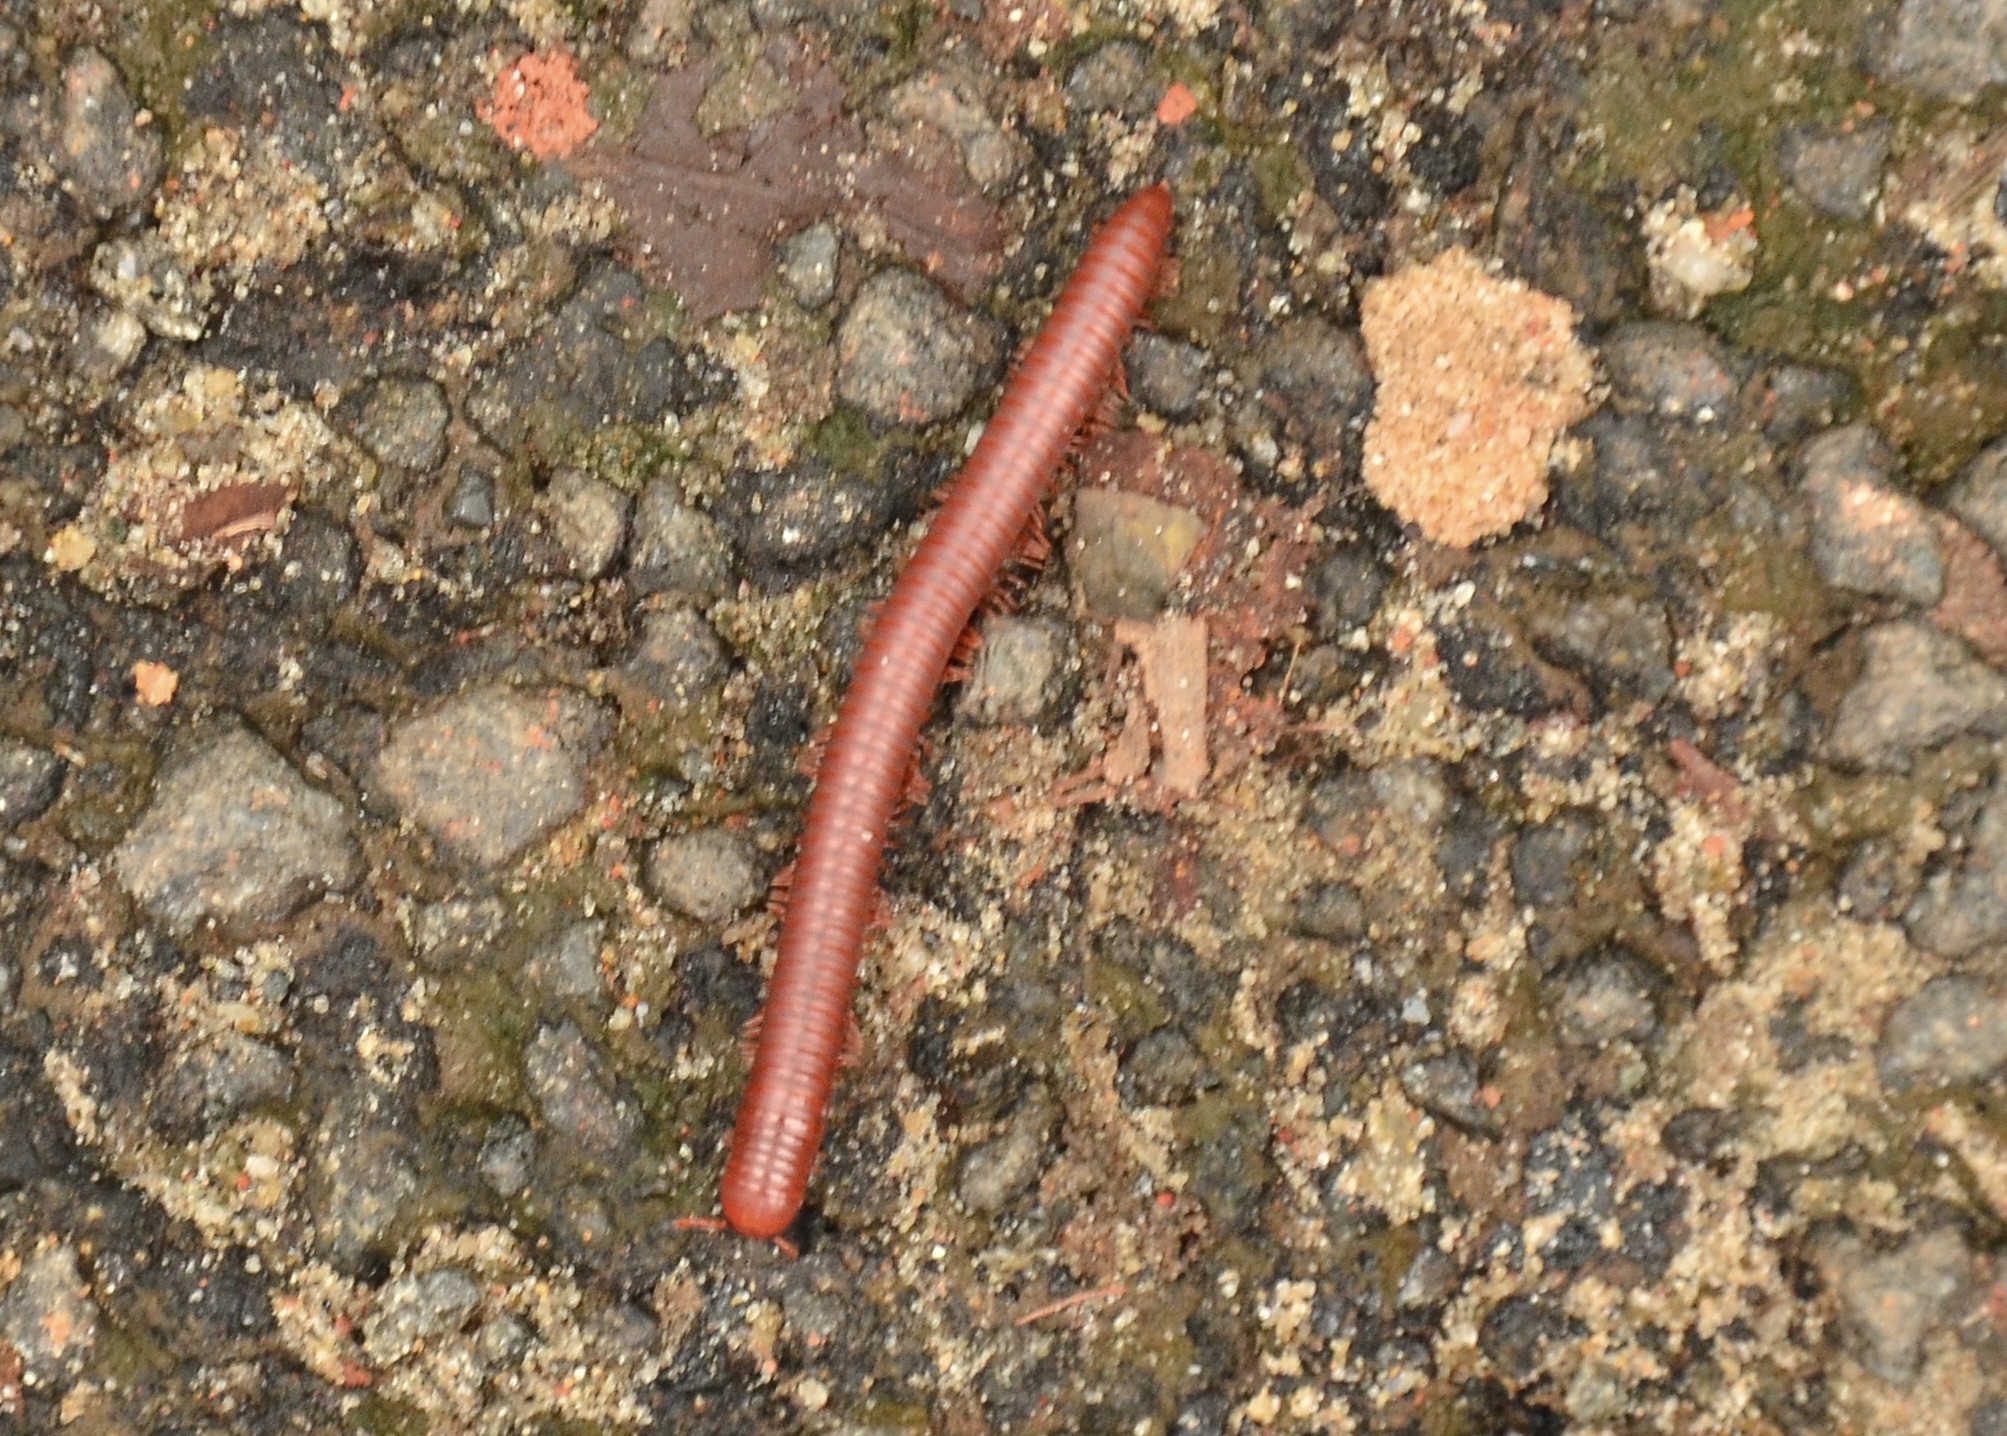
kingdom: Animalia
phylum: Arthropoda
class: Diplopoda
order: Spirobolida
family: Pachybolidae
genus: Trigoniulus
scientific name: Trigoniulus corallinus
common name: Millipede
